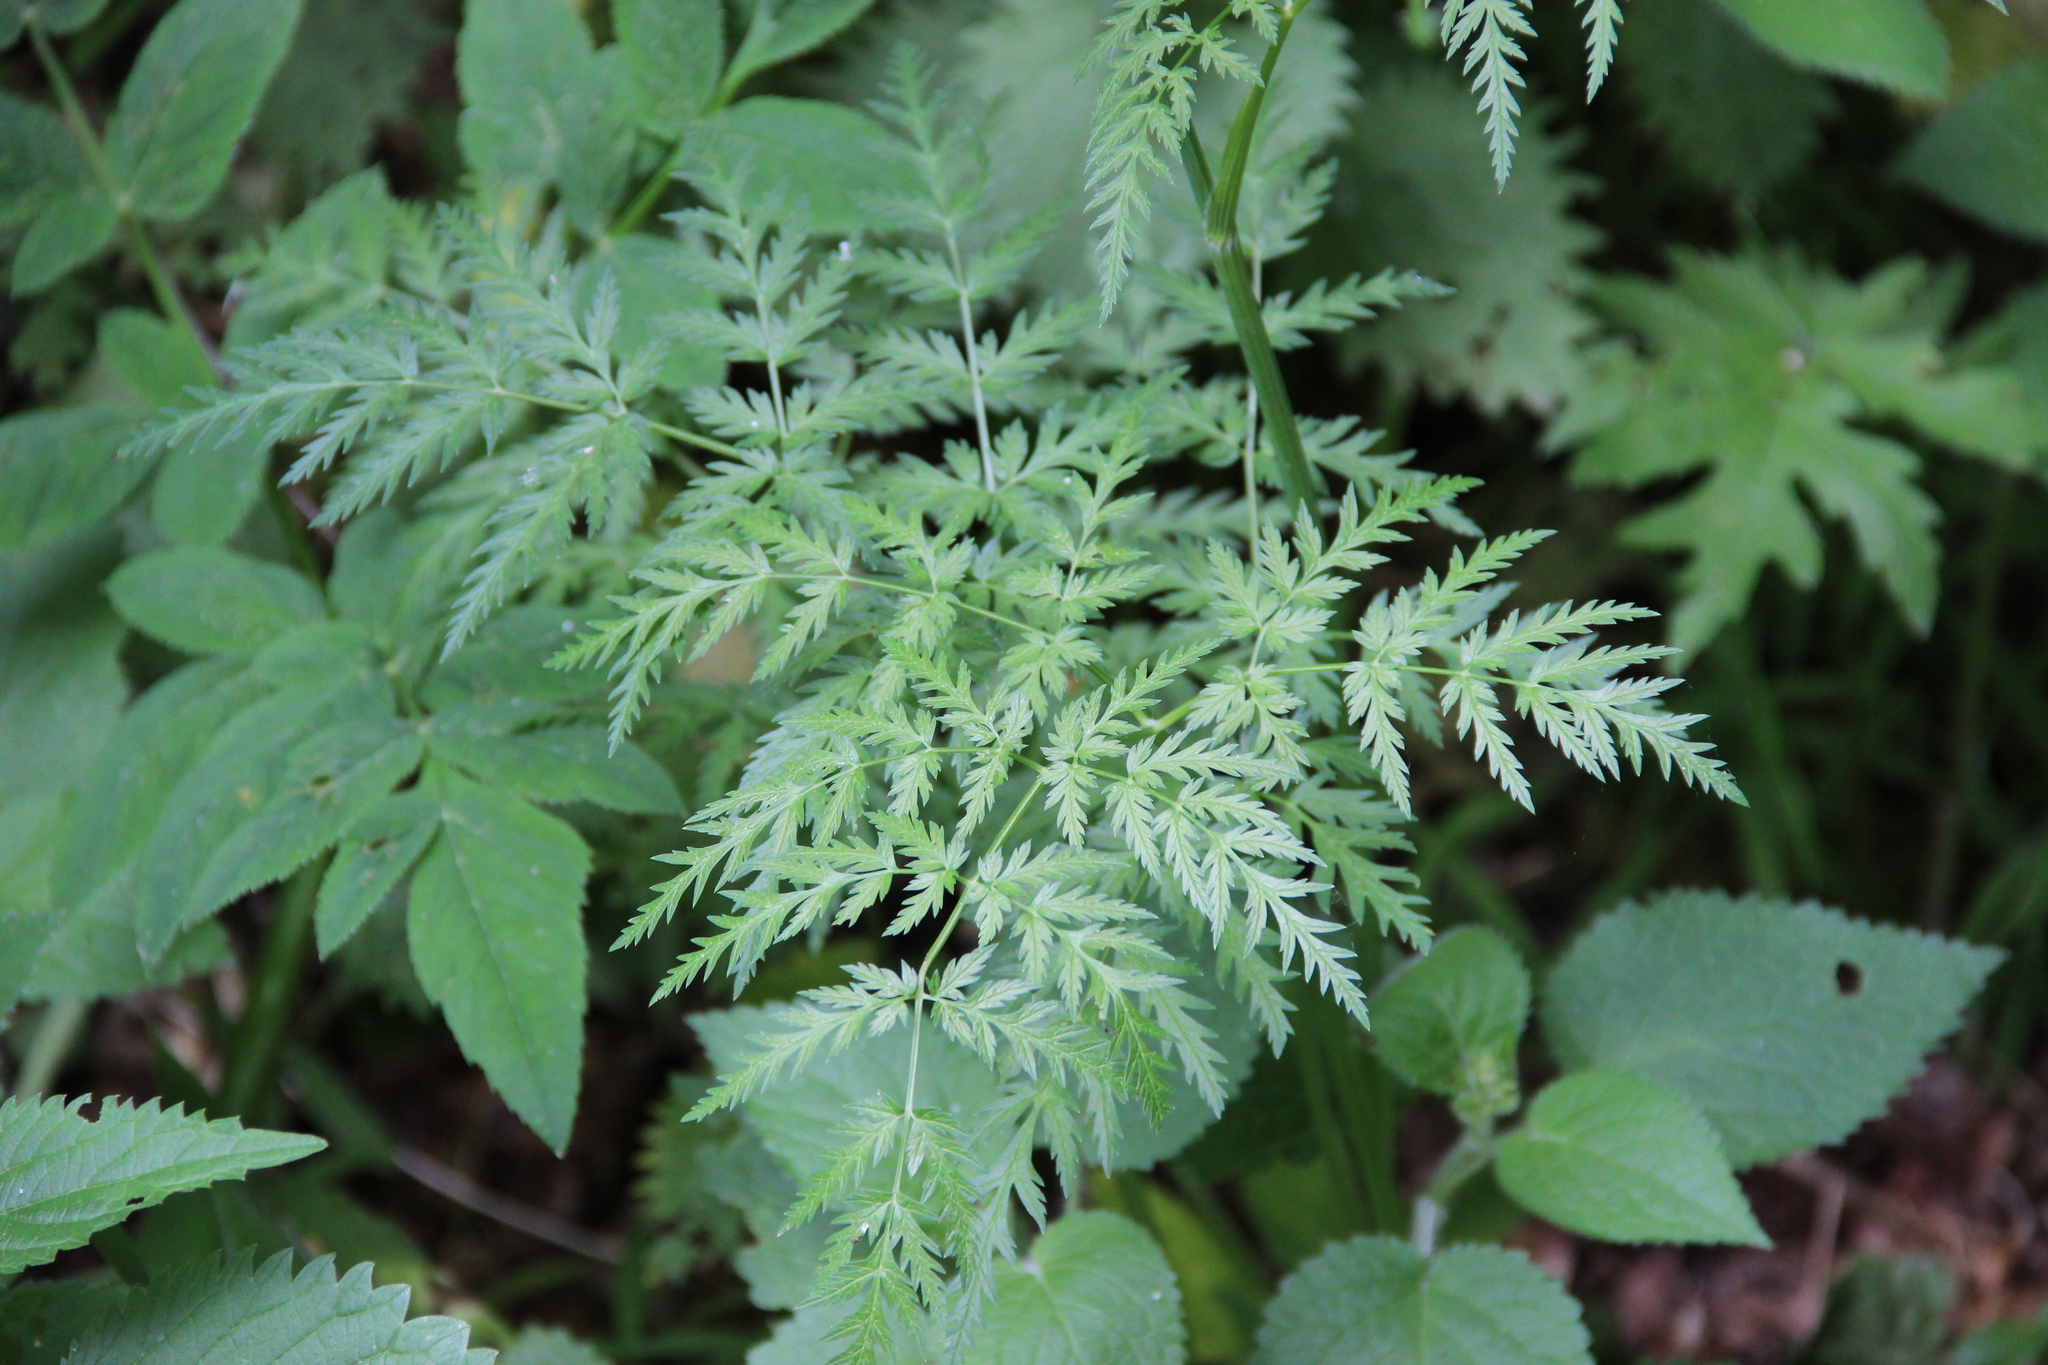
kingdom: Plantae
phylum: Tracheophyta
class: Magnoliopsida
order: Apiales
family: Apiaceae
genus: Anthriscus
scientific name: Anthriscus sylvestris
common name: Cow parsley
